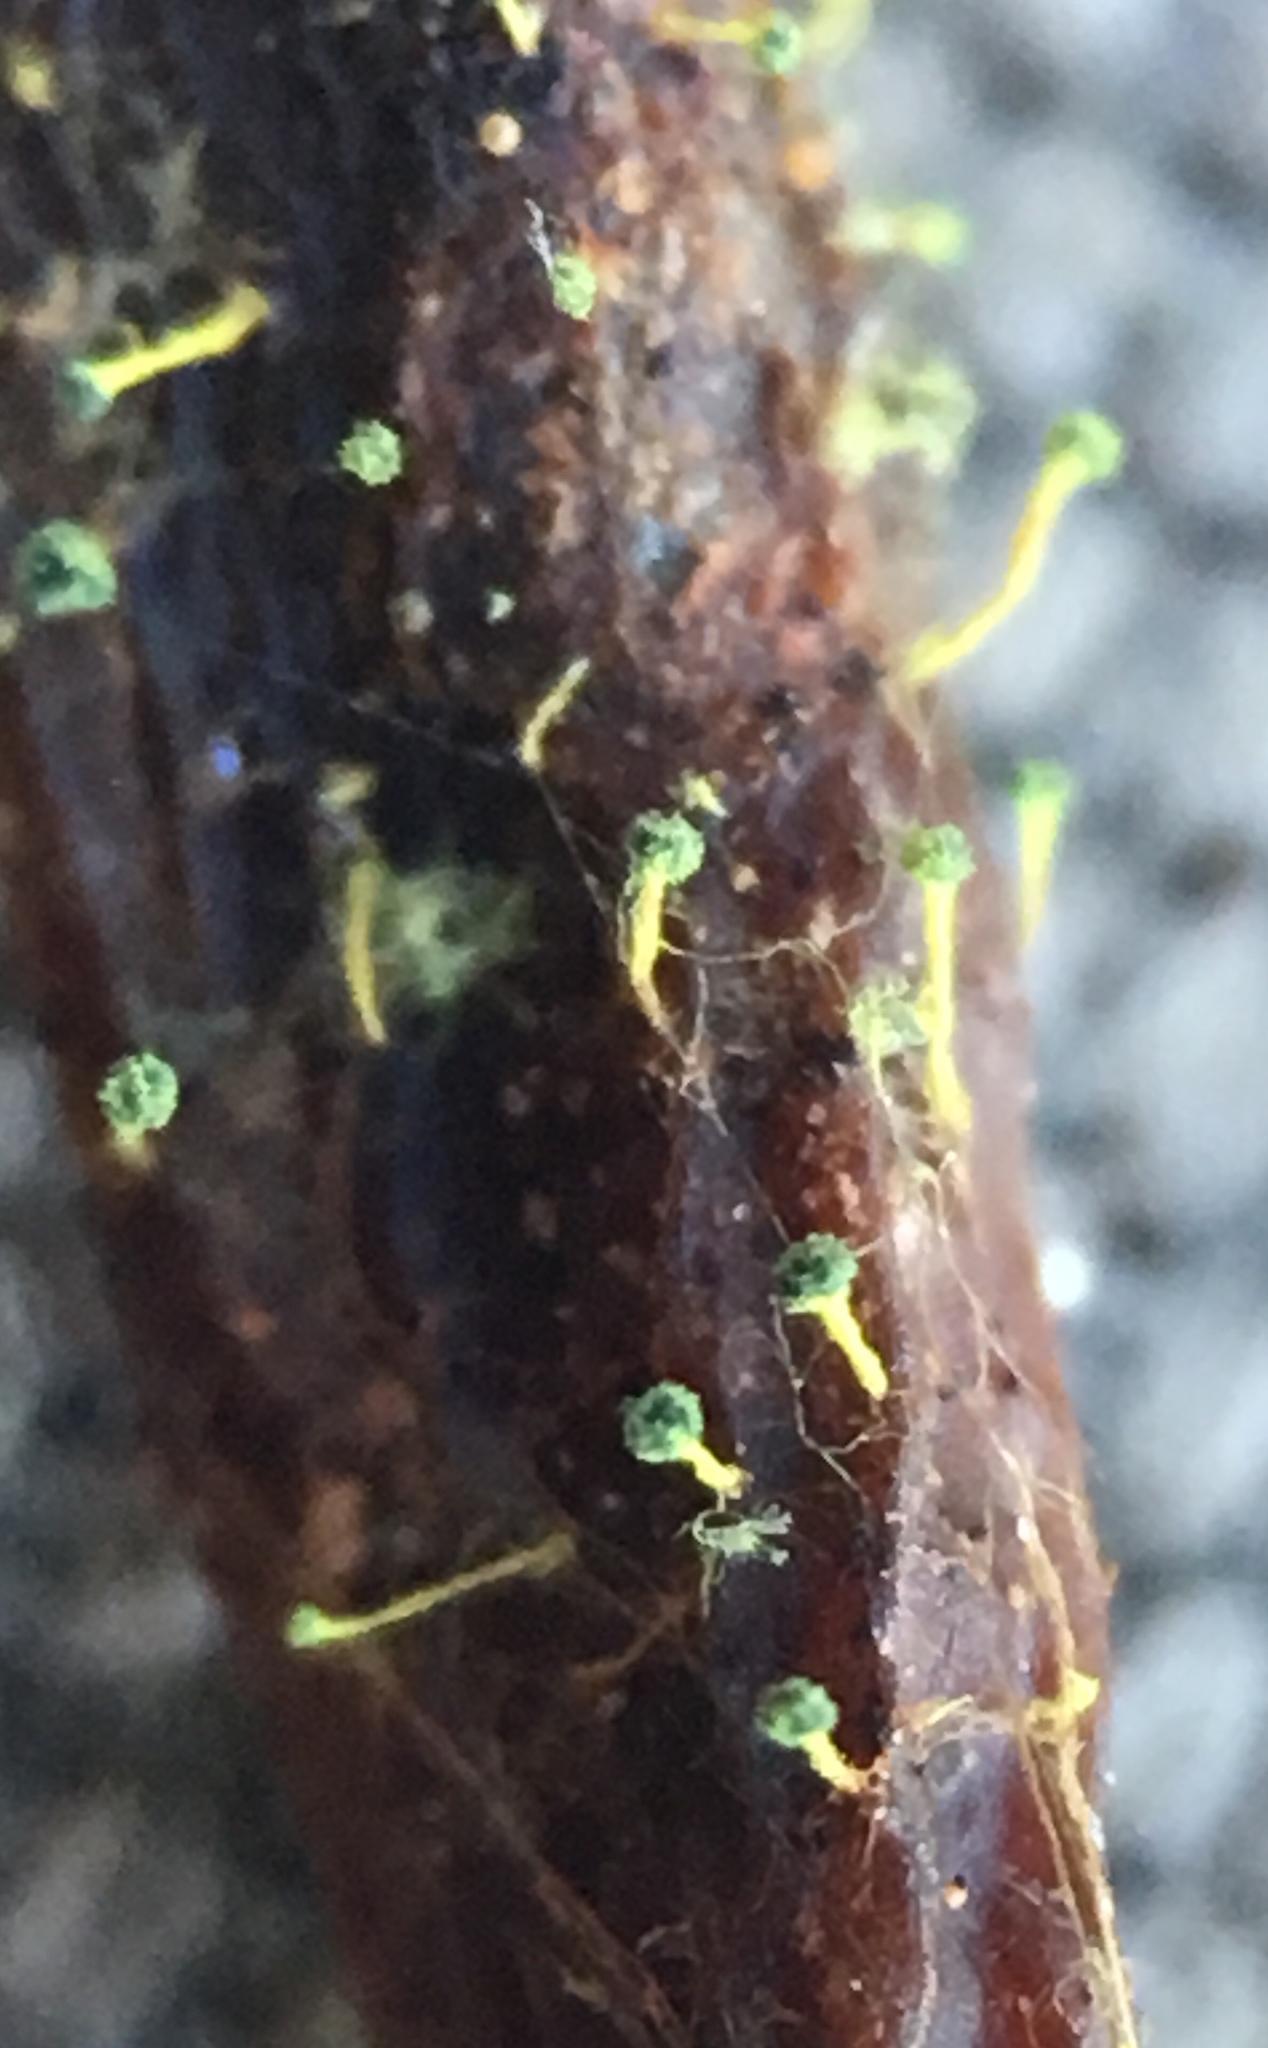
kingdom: Fungi
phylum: Ascomycota
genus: Mycosylva
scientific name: Mycosylva setosa
